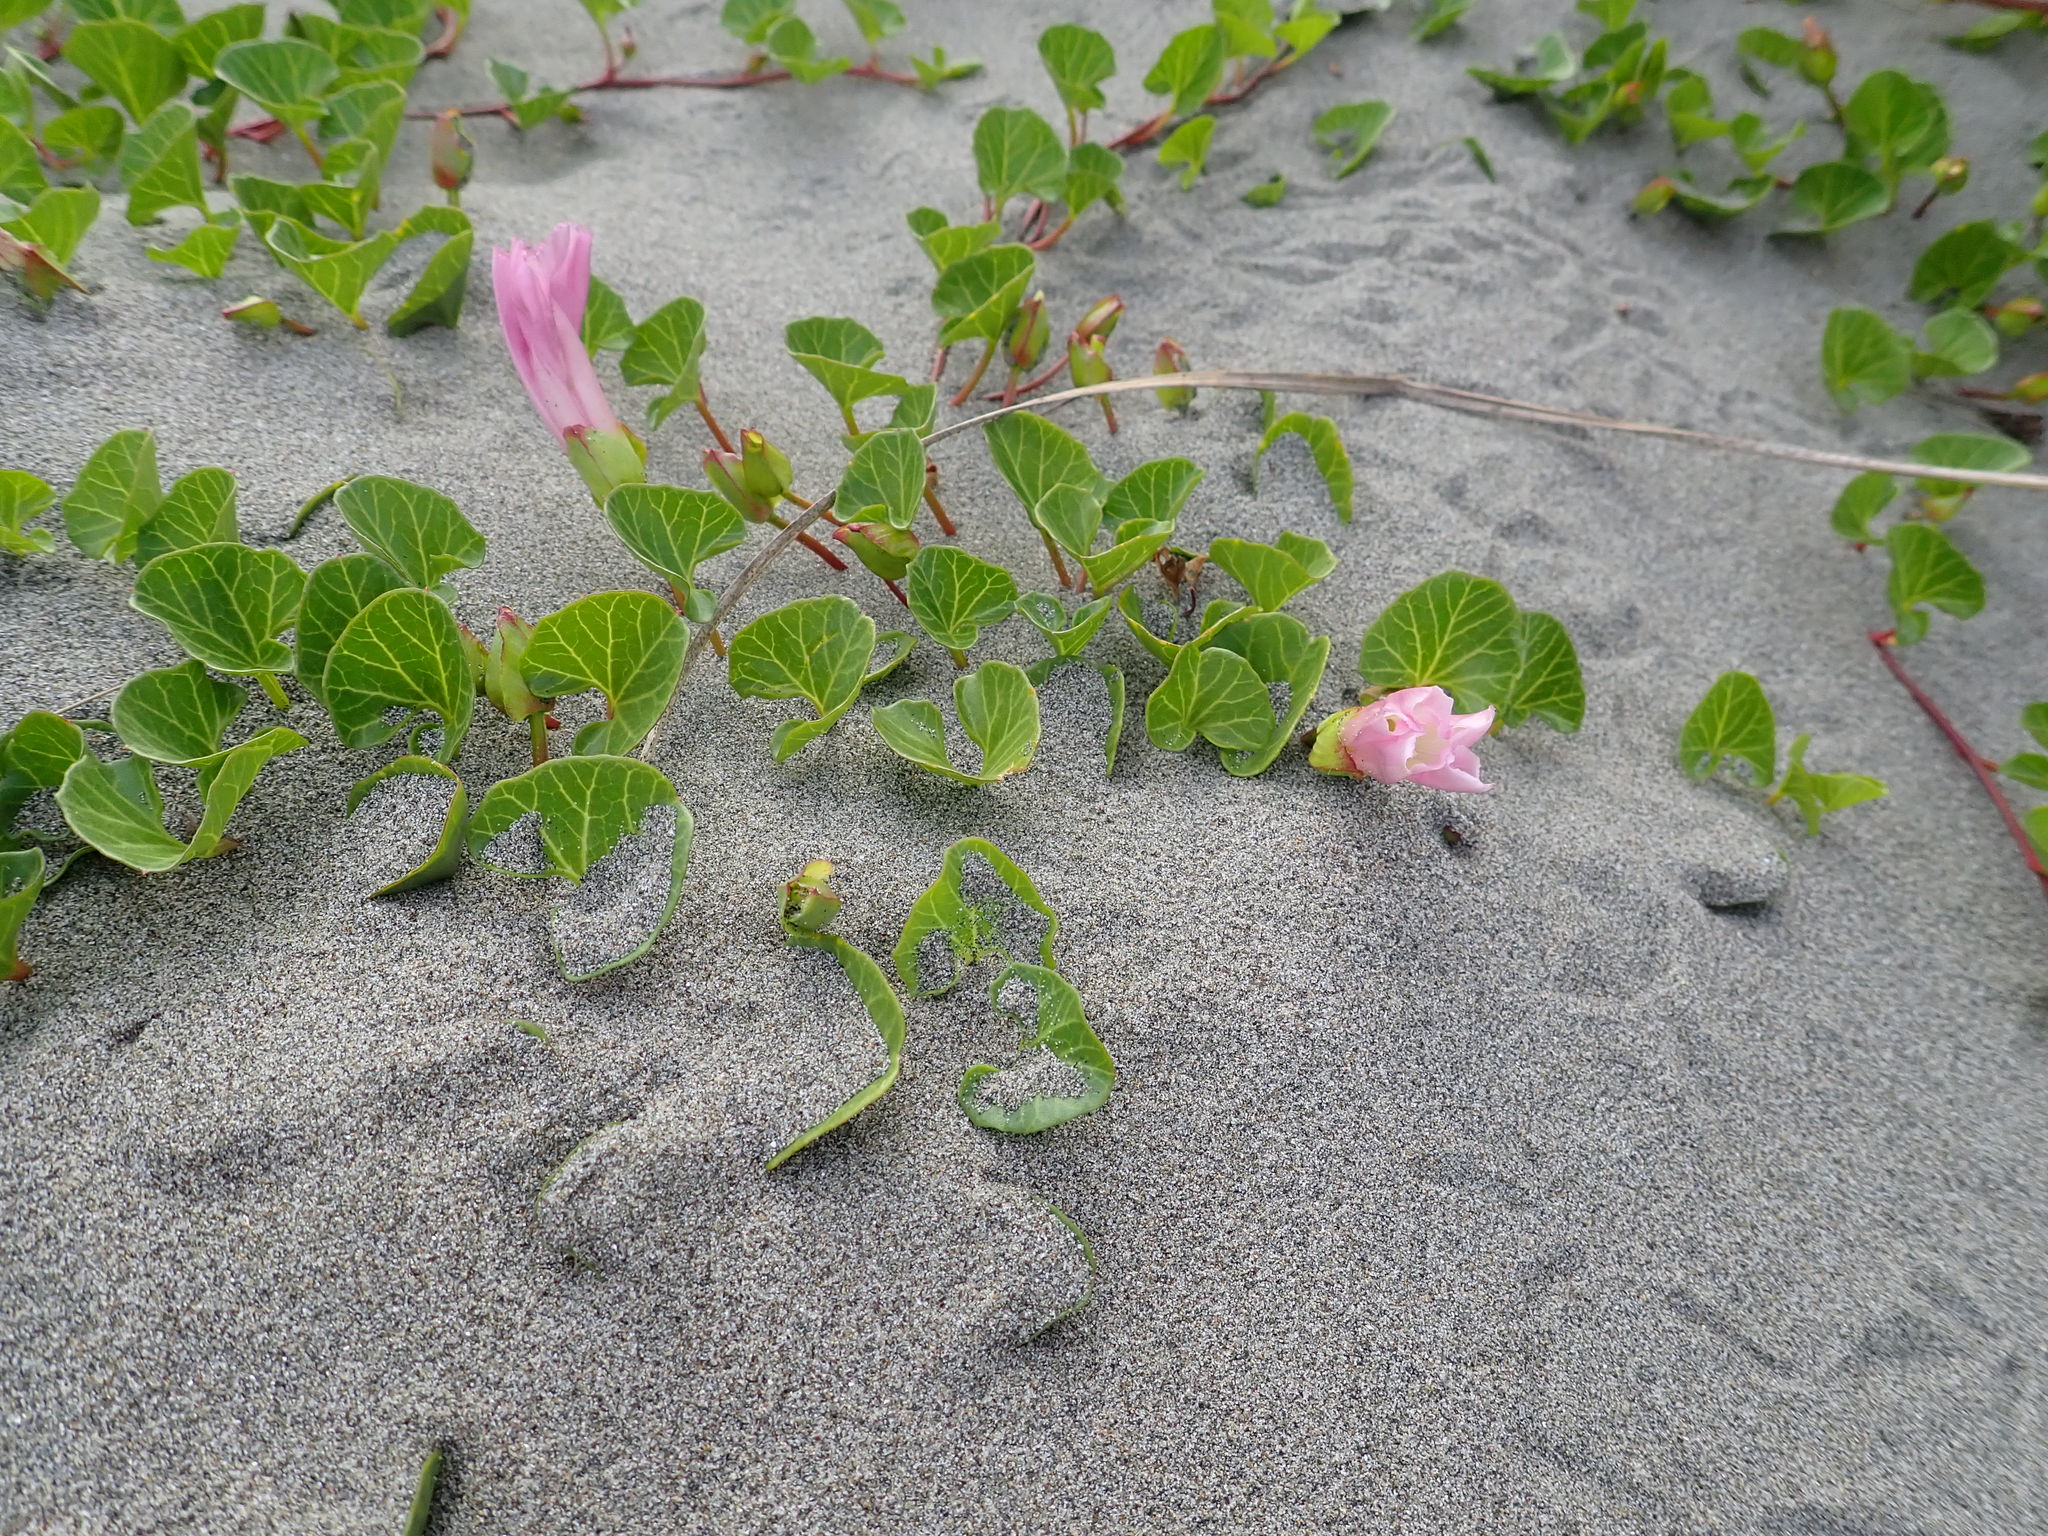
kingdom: Plantae
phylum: Tracheophyta
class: Magnoliopsida
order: Solanales
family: Convolvulaceae
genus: Calystegia
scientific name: Calystegia soldanella
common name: Sea bindweed
